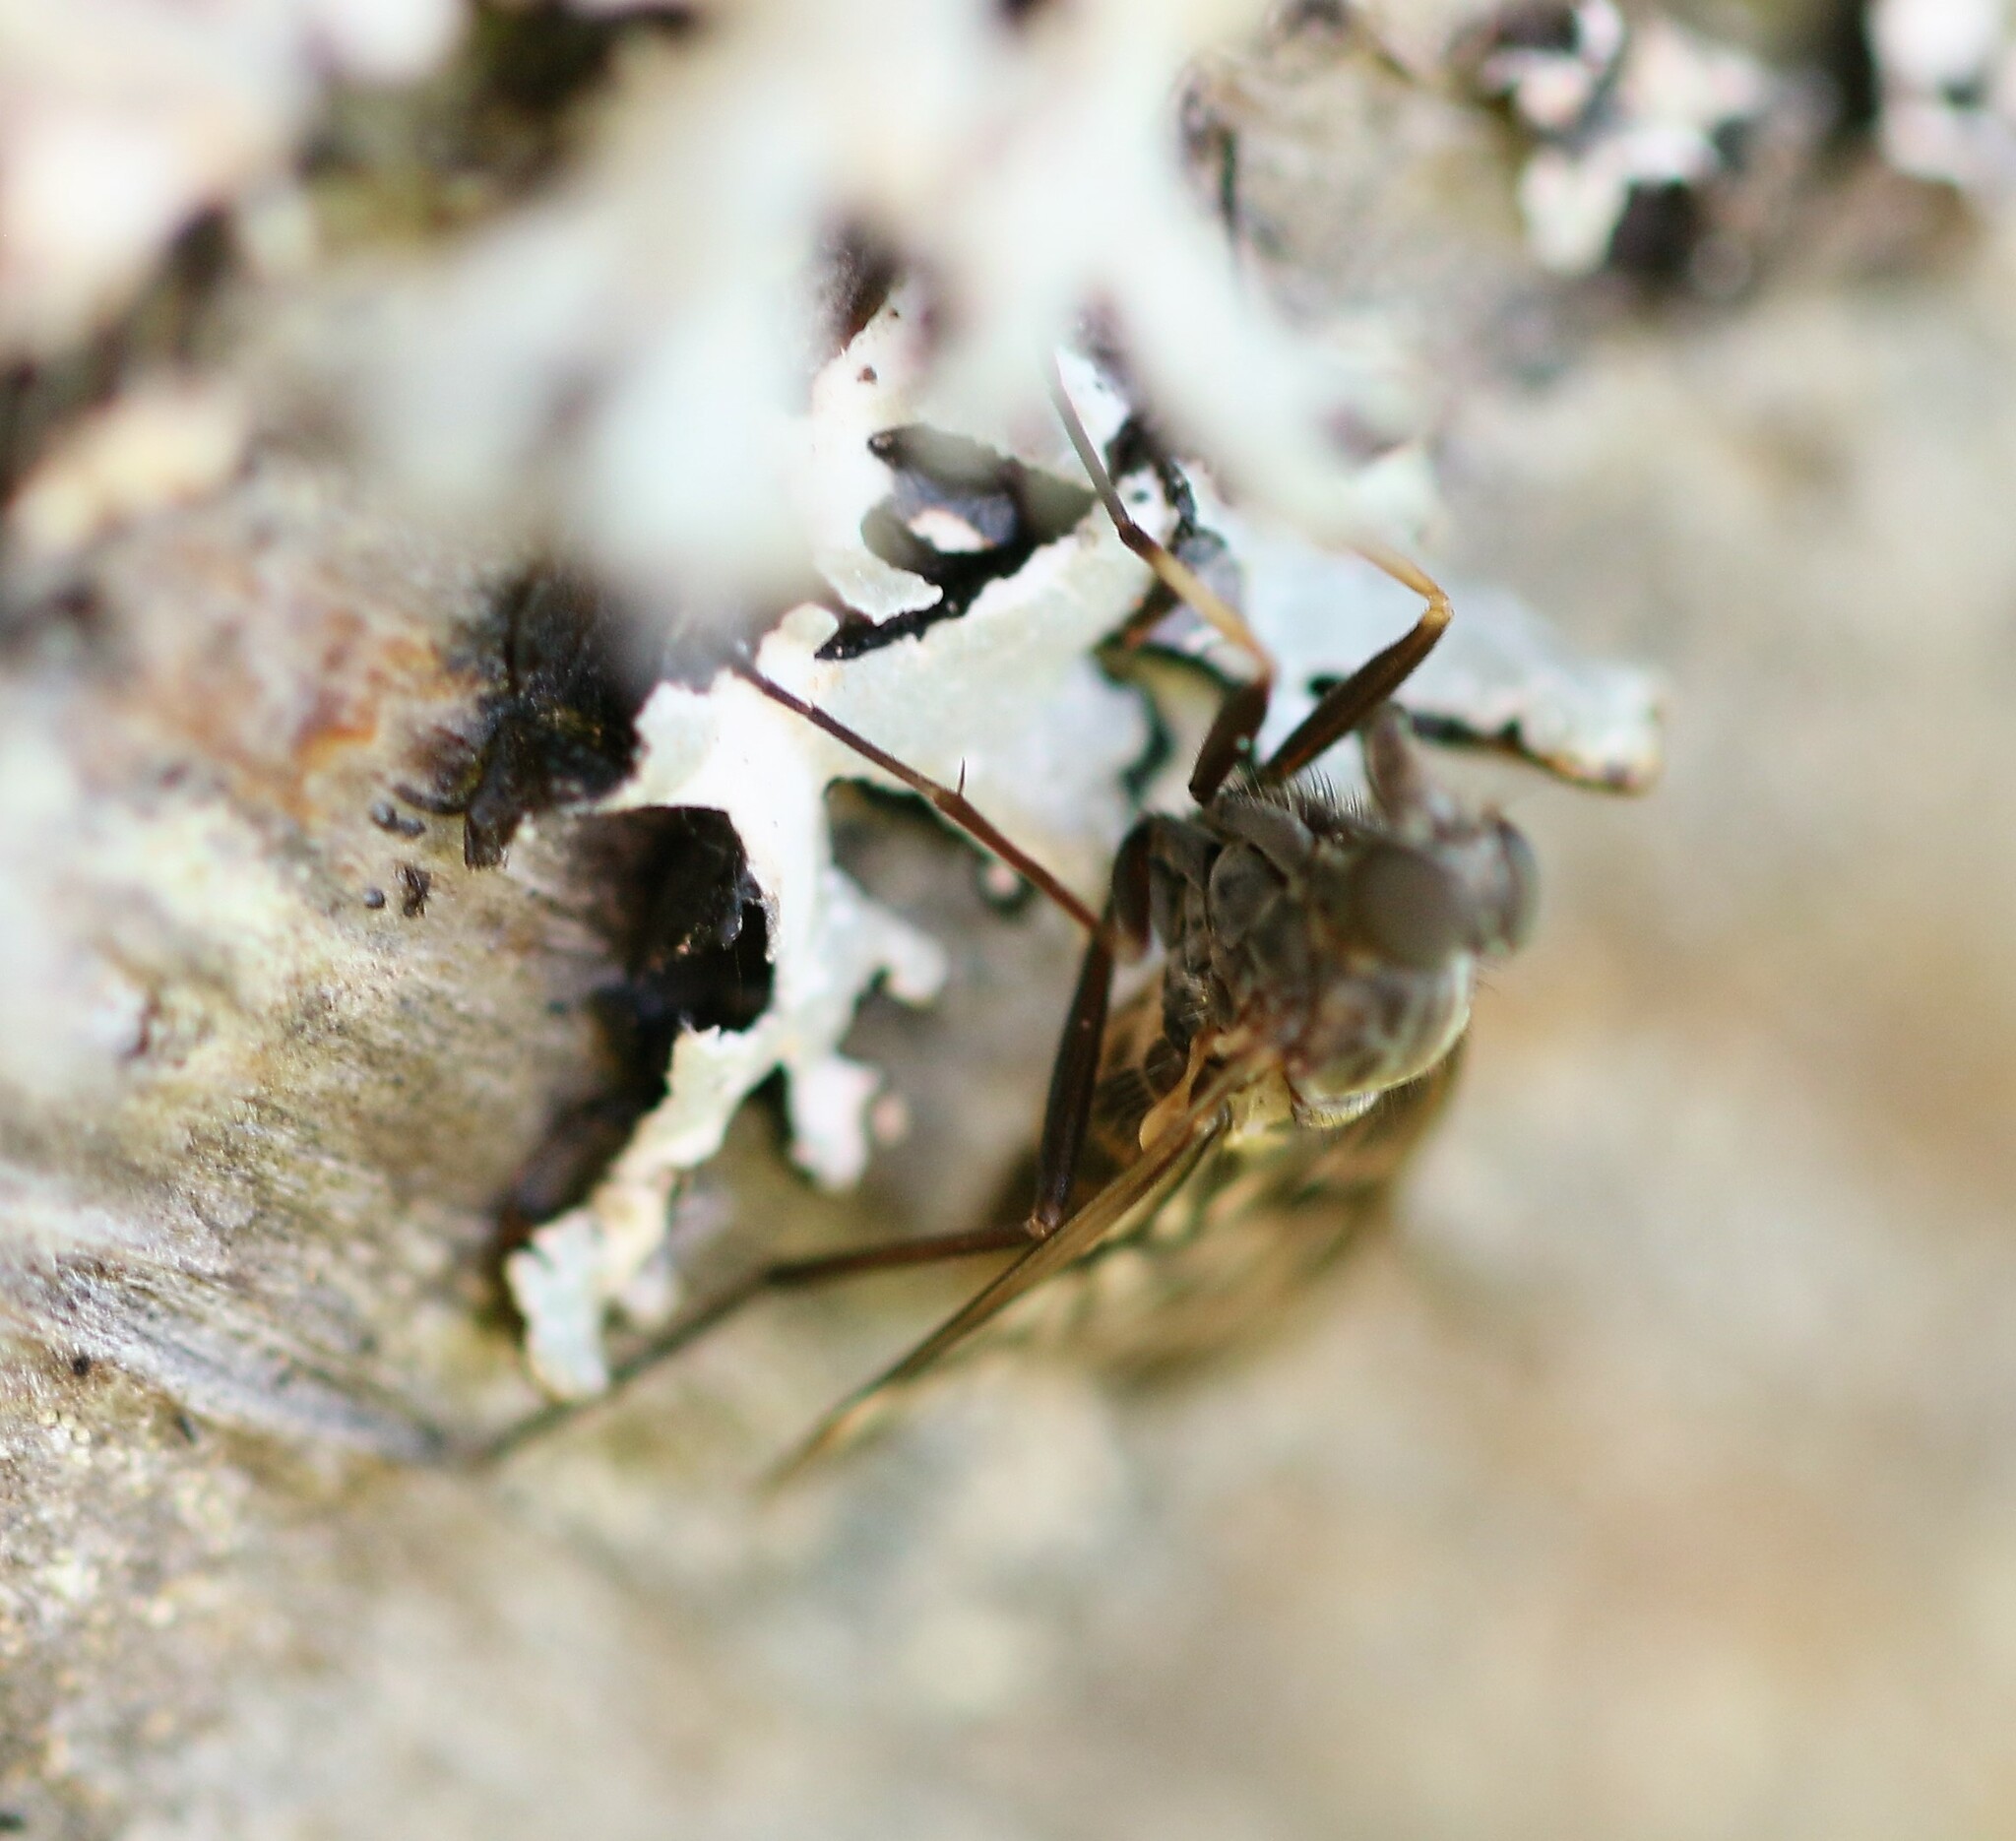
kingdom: Animalia
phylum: Arthropoda
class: Insecta
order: Diptera
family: Rhagionidae
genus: Rhagio
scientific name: Rhagio mystaceus
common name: Common snipe fly
